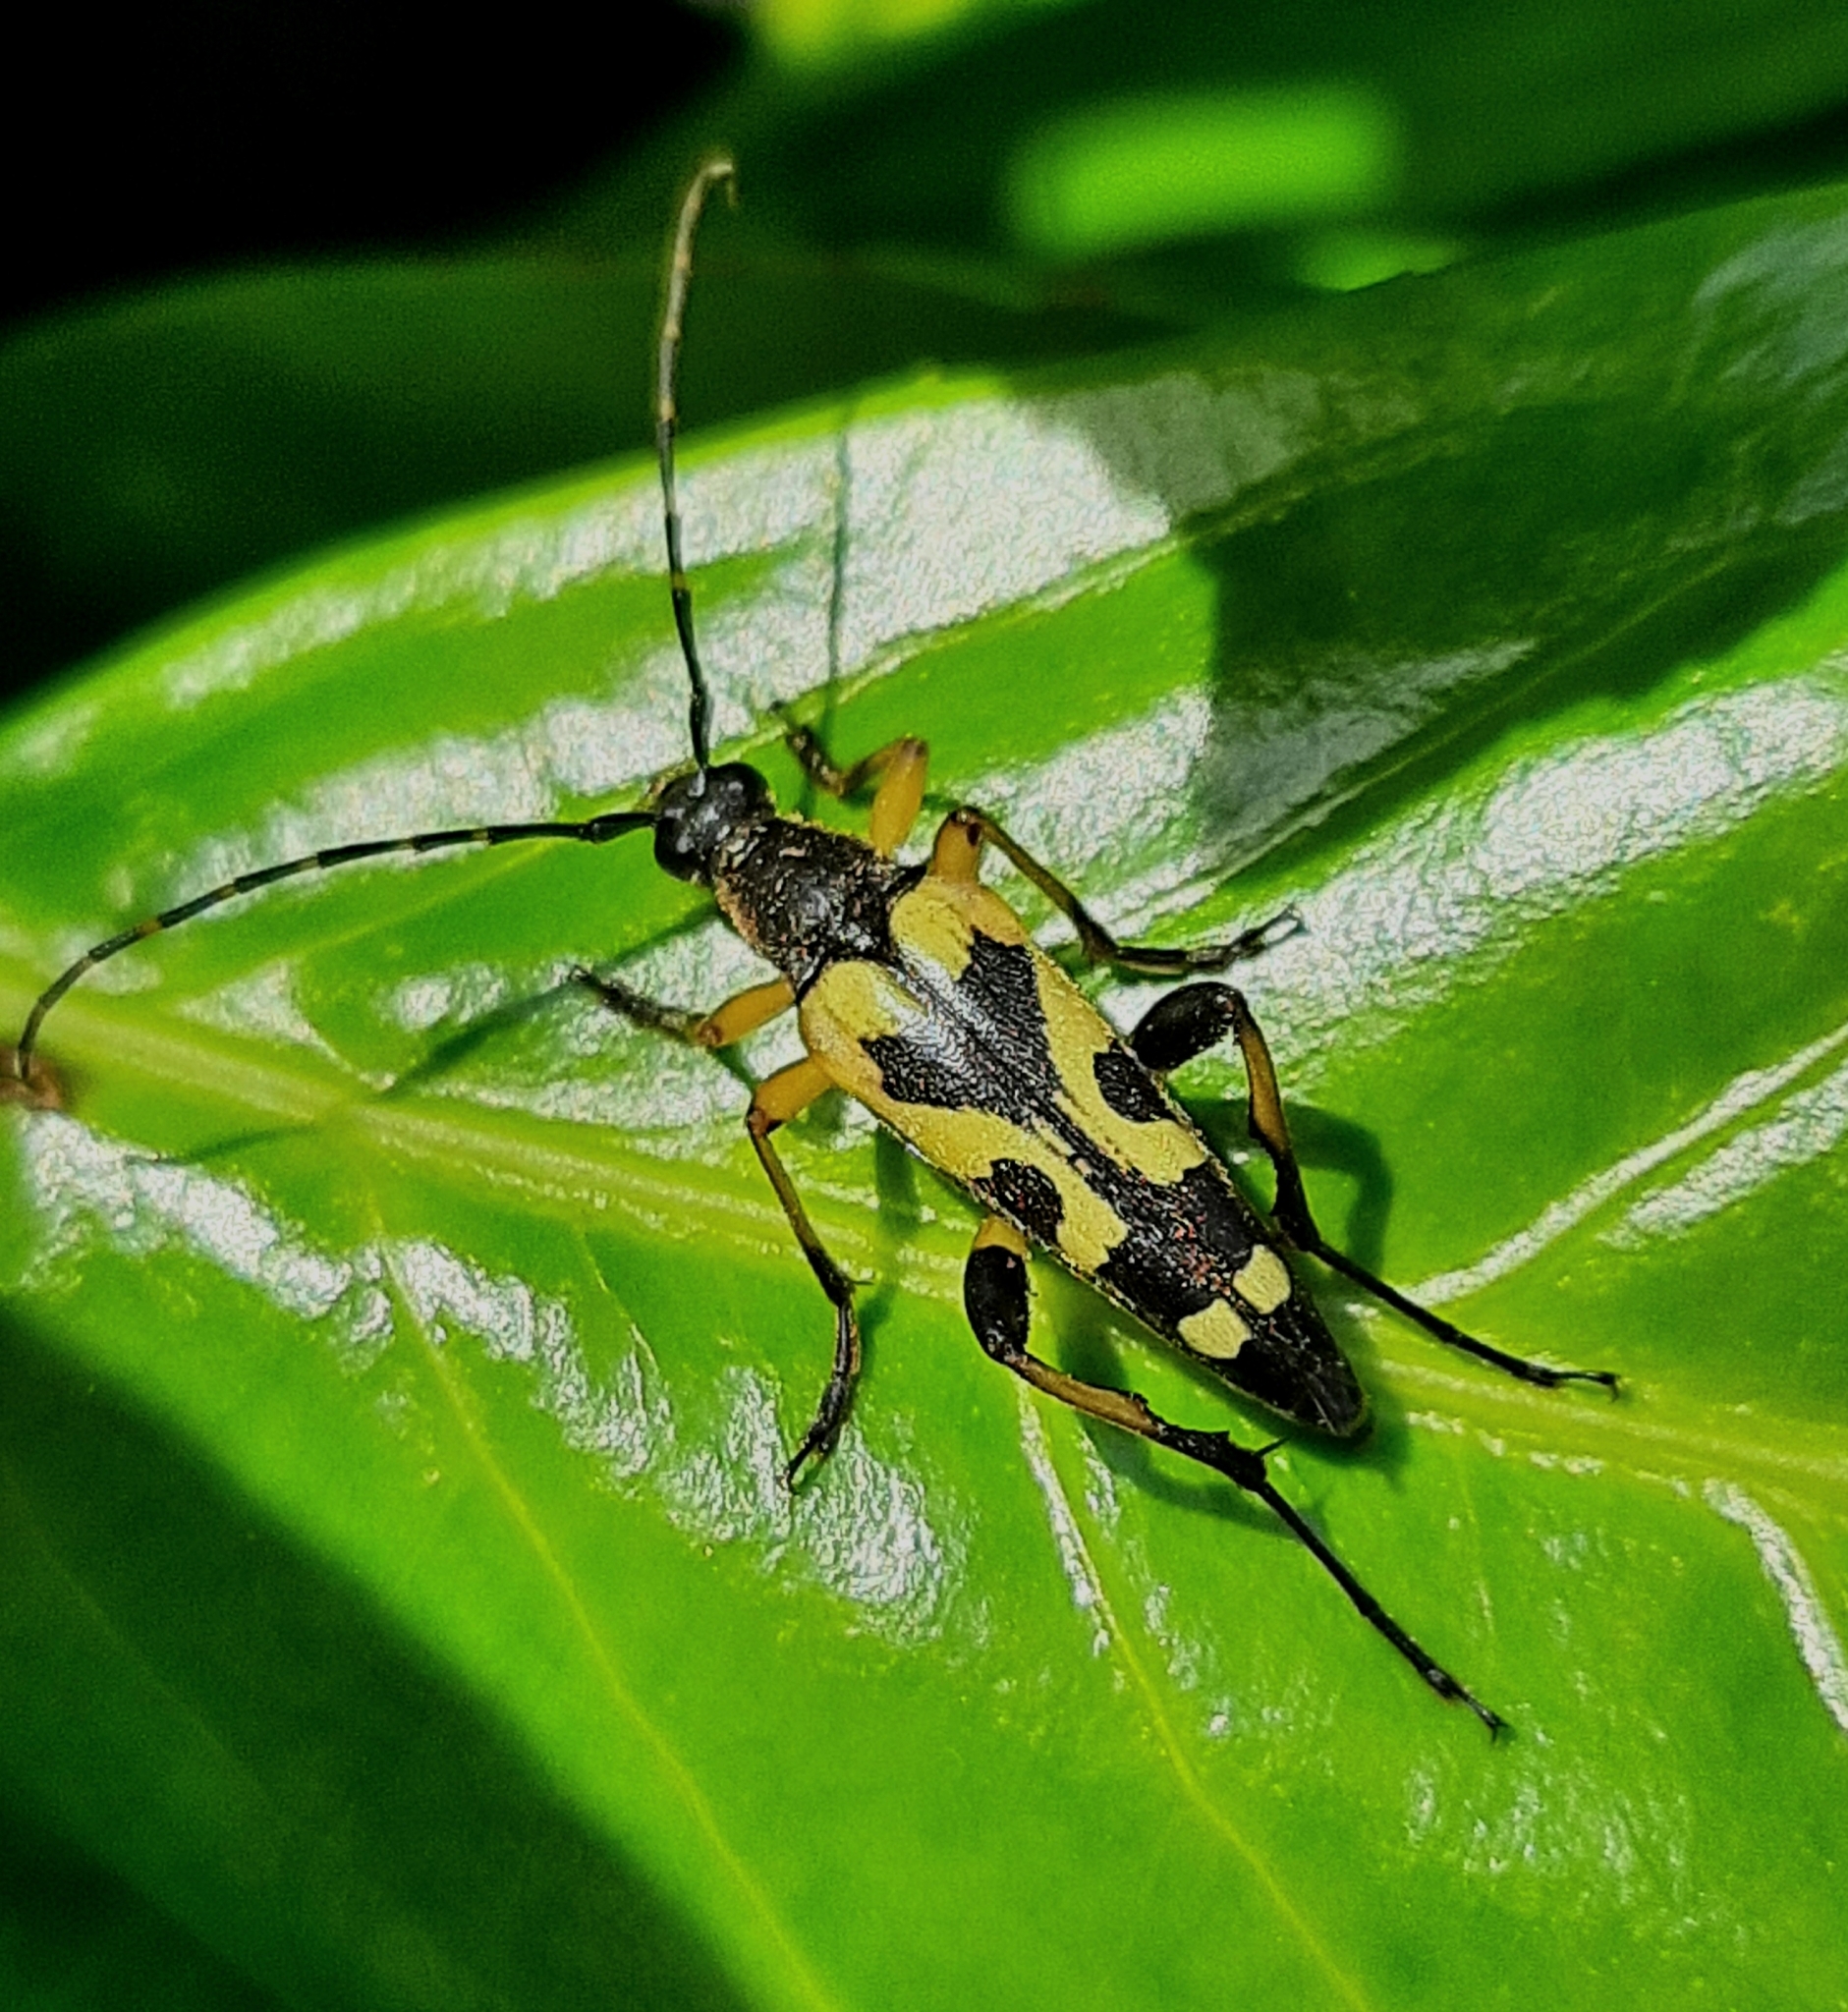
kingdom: Animalia
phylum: Arthropoda
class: Insecta
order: Coleoptera
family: Cerambycidae
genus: Rutpela
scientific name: Rutpela maculata
